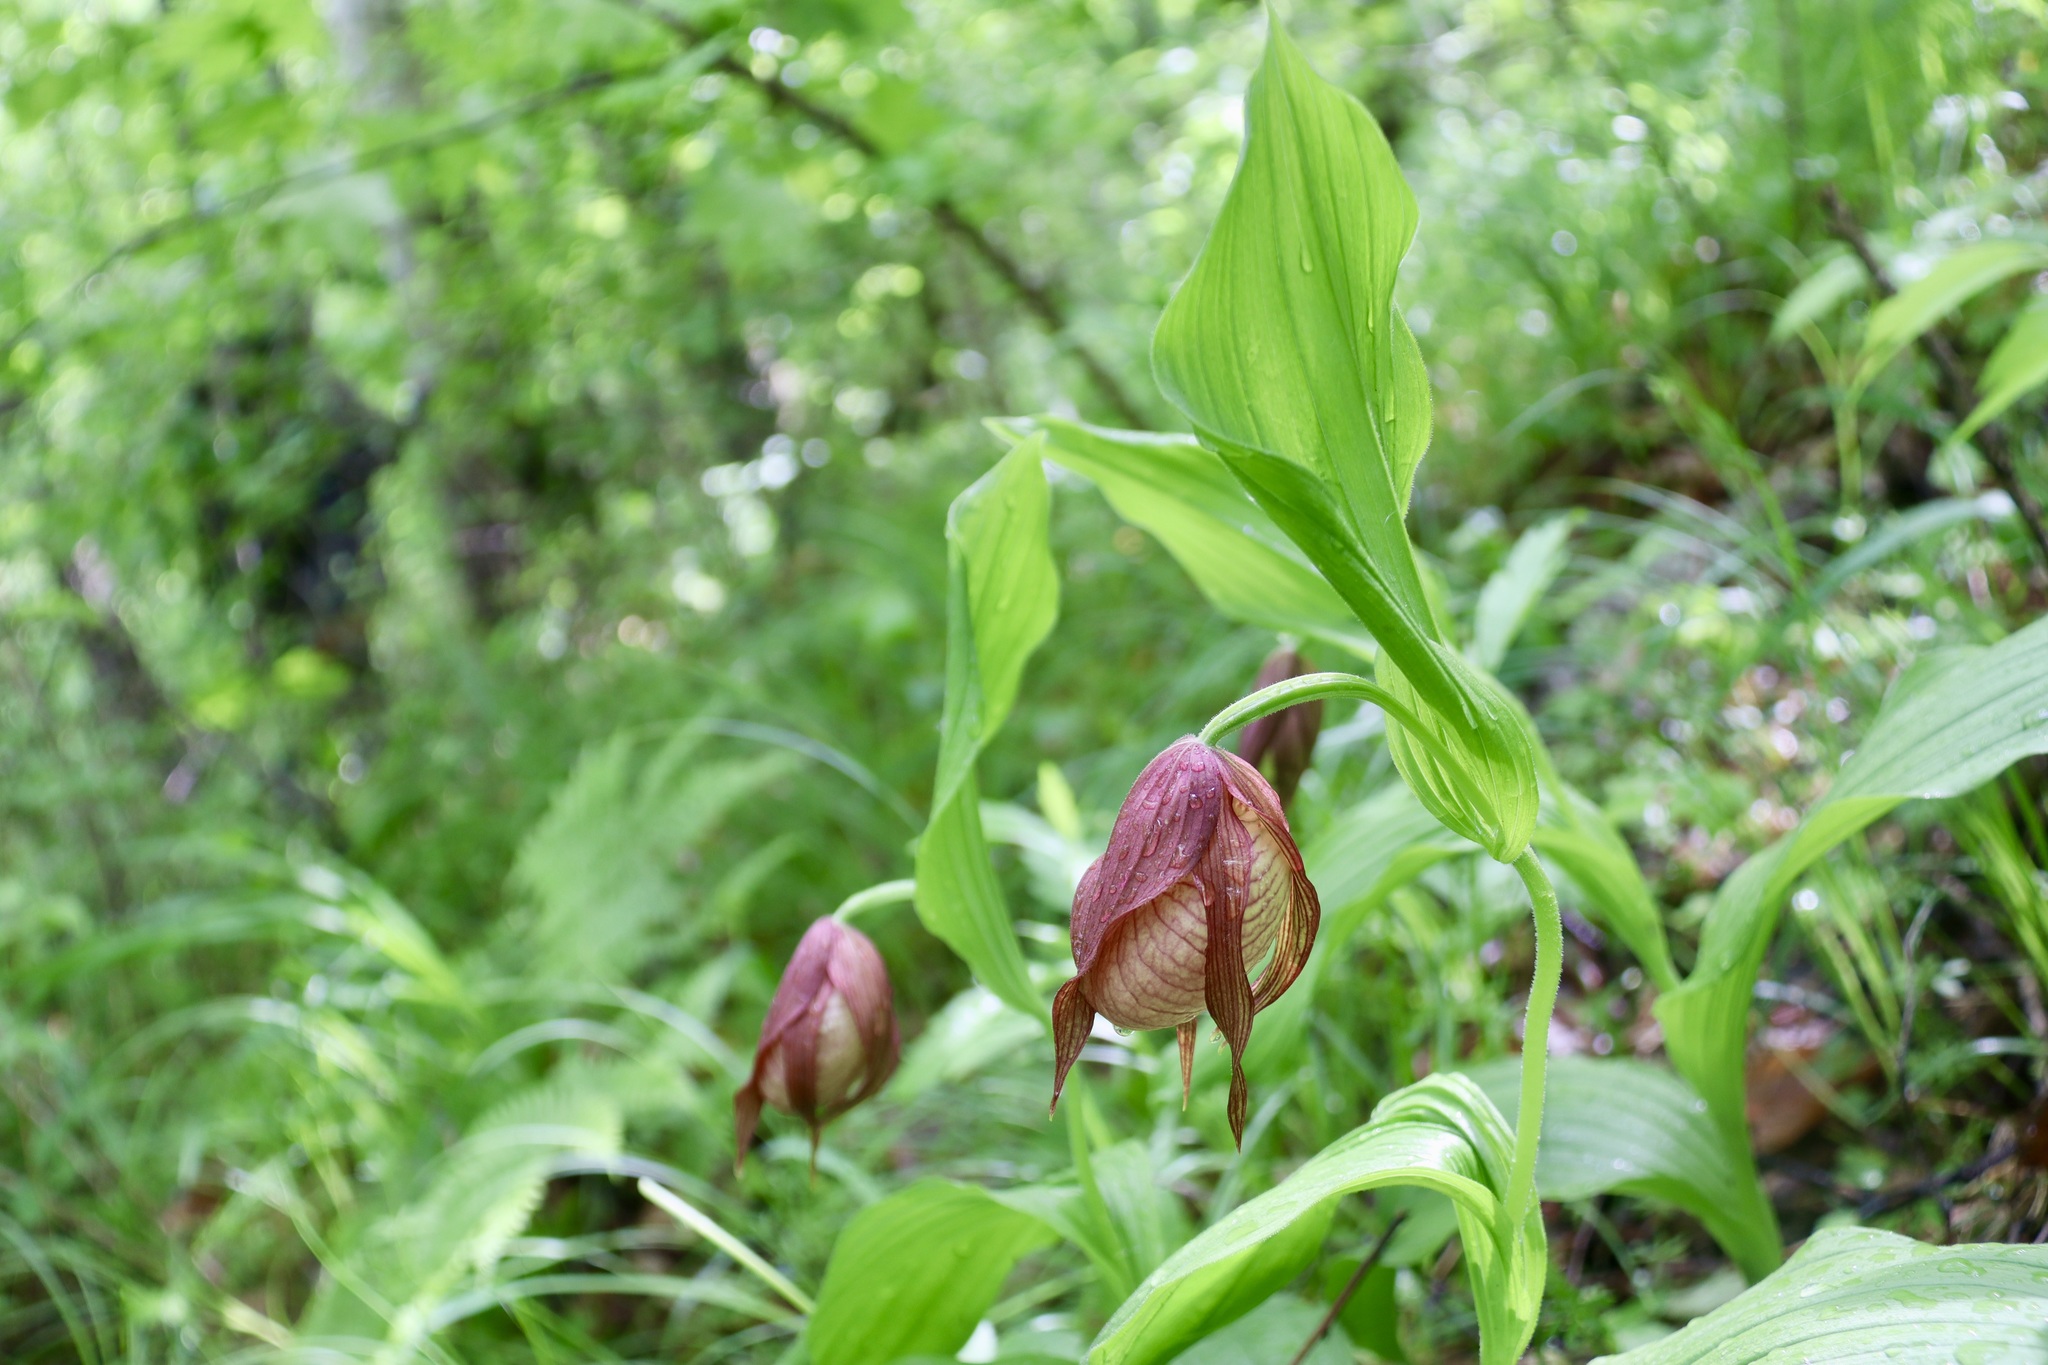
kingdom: Plantae
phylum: Tracheophyta
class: Liliopsida
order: Asparagales
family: Orchidaceae
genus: Cypripedium
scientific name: Cypripedium ventricosum
